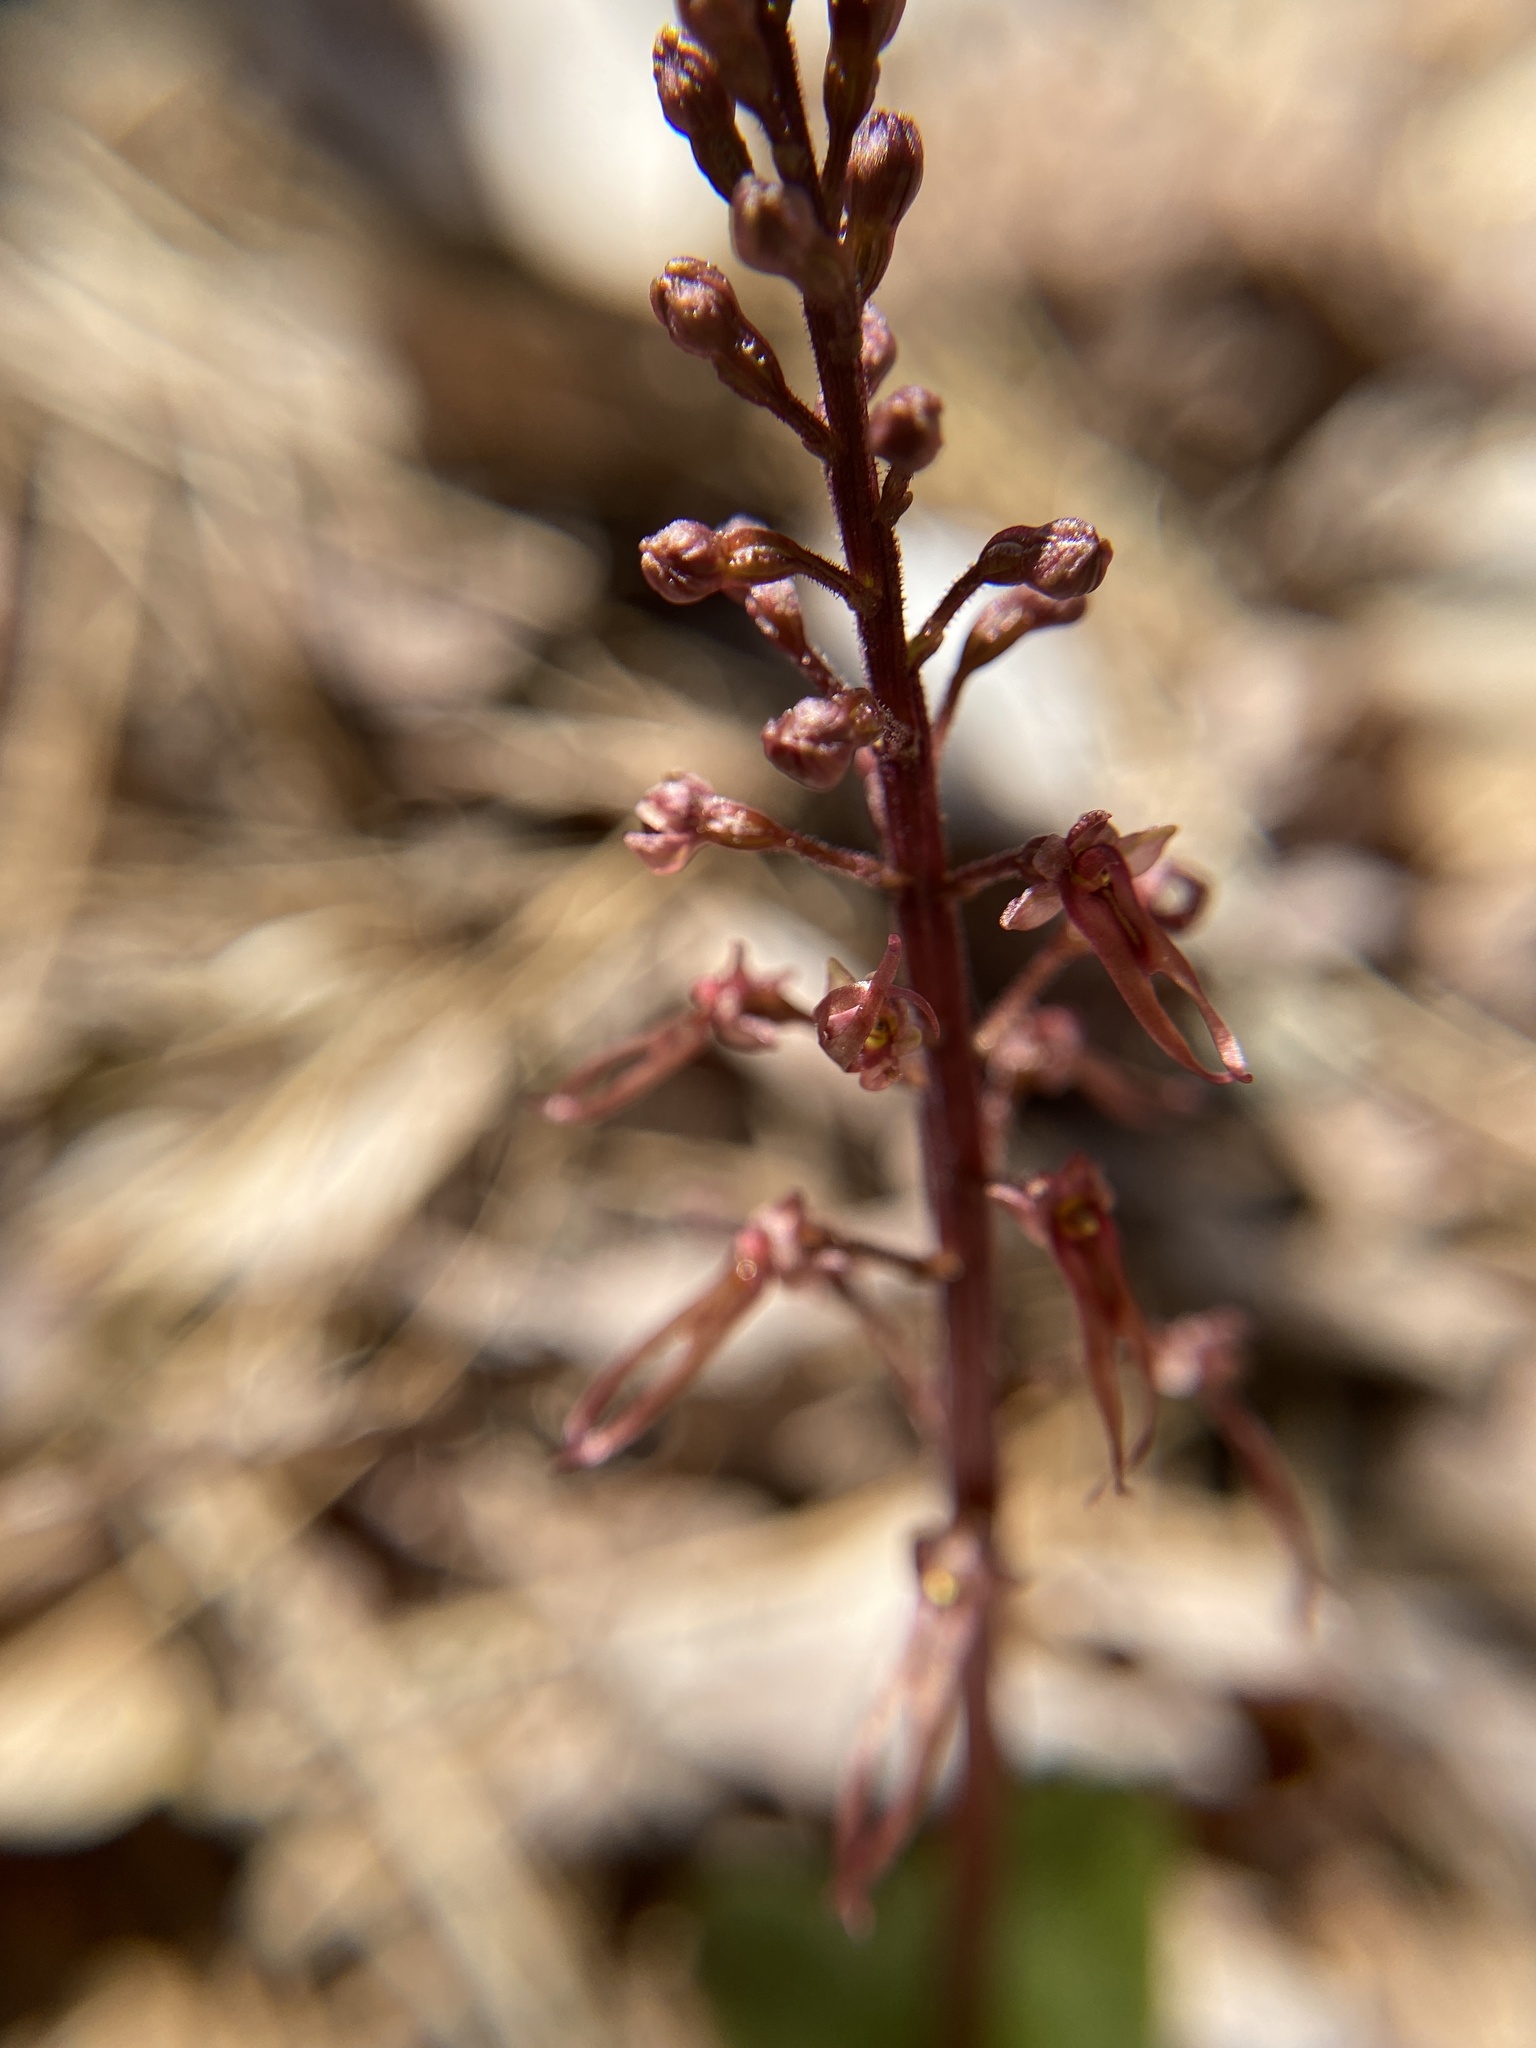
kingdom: Plantae
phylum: Tracheophyta
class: Liliopsida
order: Asparagales
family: Orchidaceae
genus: Neottia
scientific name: Neottia bifolia
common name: Southern twayblade
